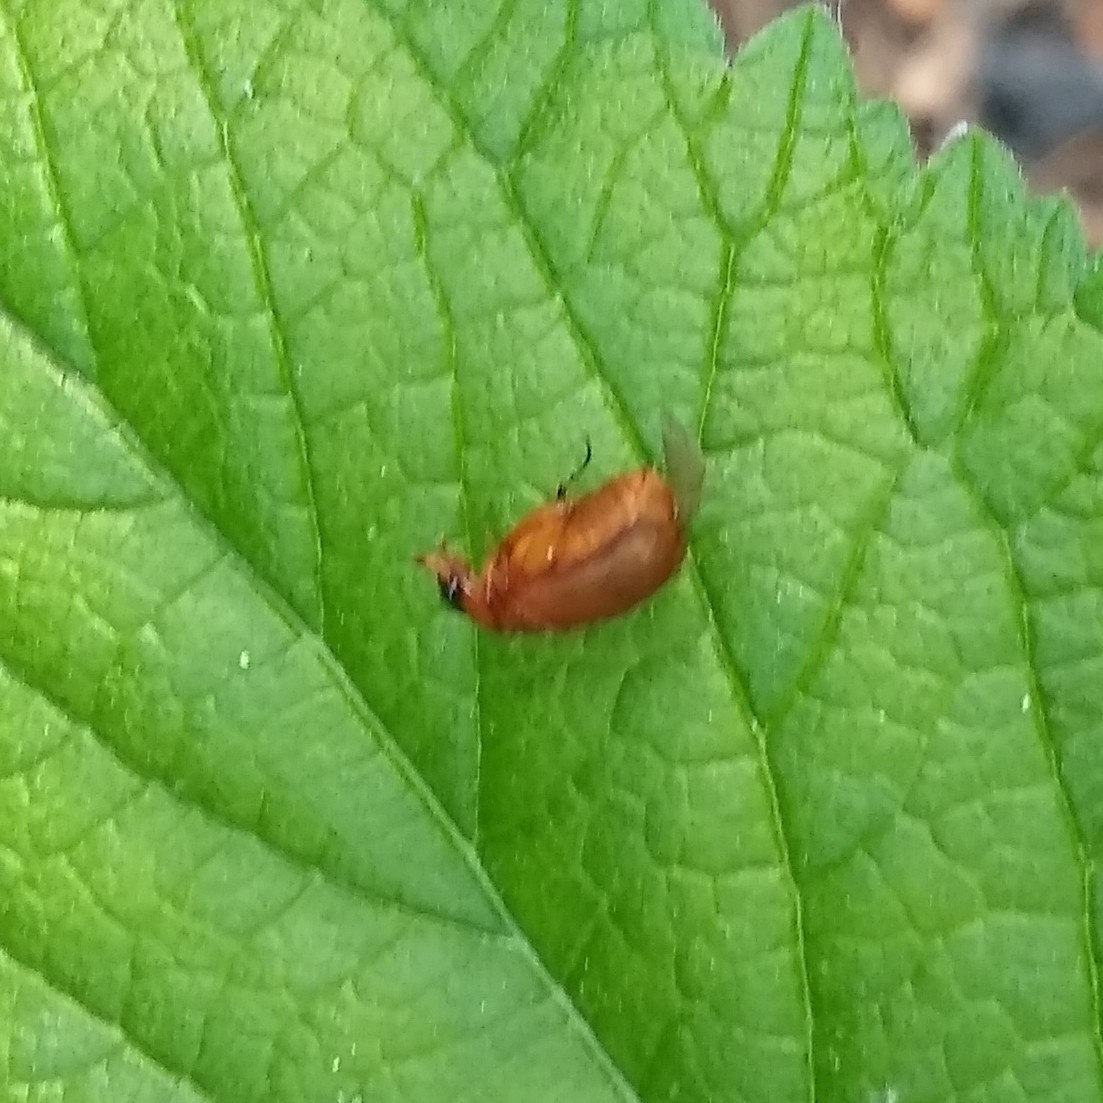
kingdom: Animalia
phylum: Arthropoda
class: Insecta
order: Coleoptera
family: Scarabaeidae
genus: Maladera
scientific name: Maladera formosae
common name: Asiatic garden beetle
